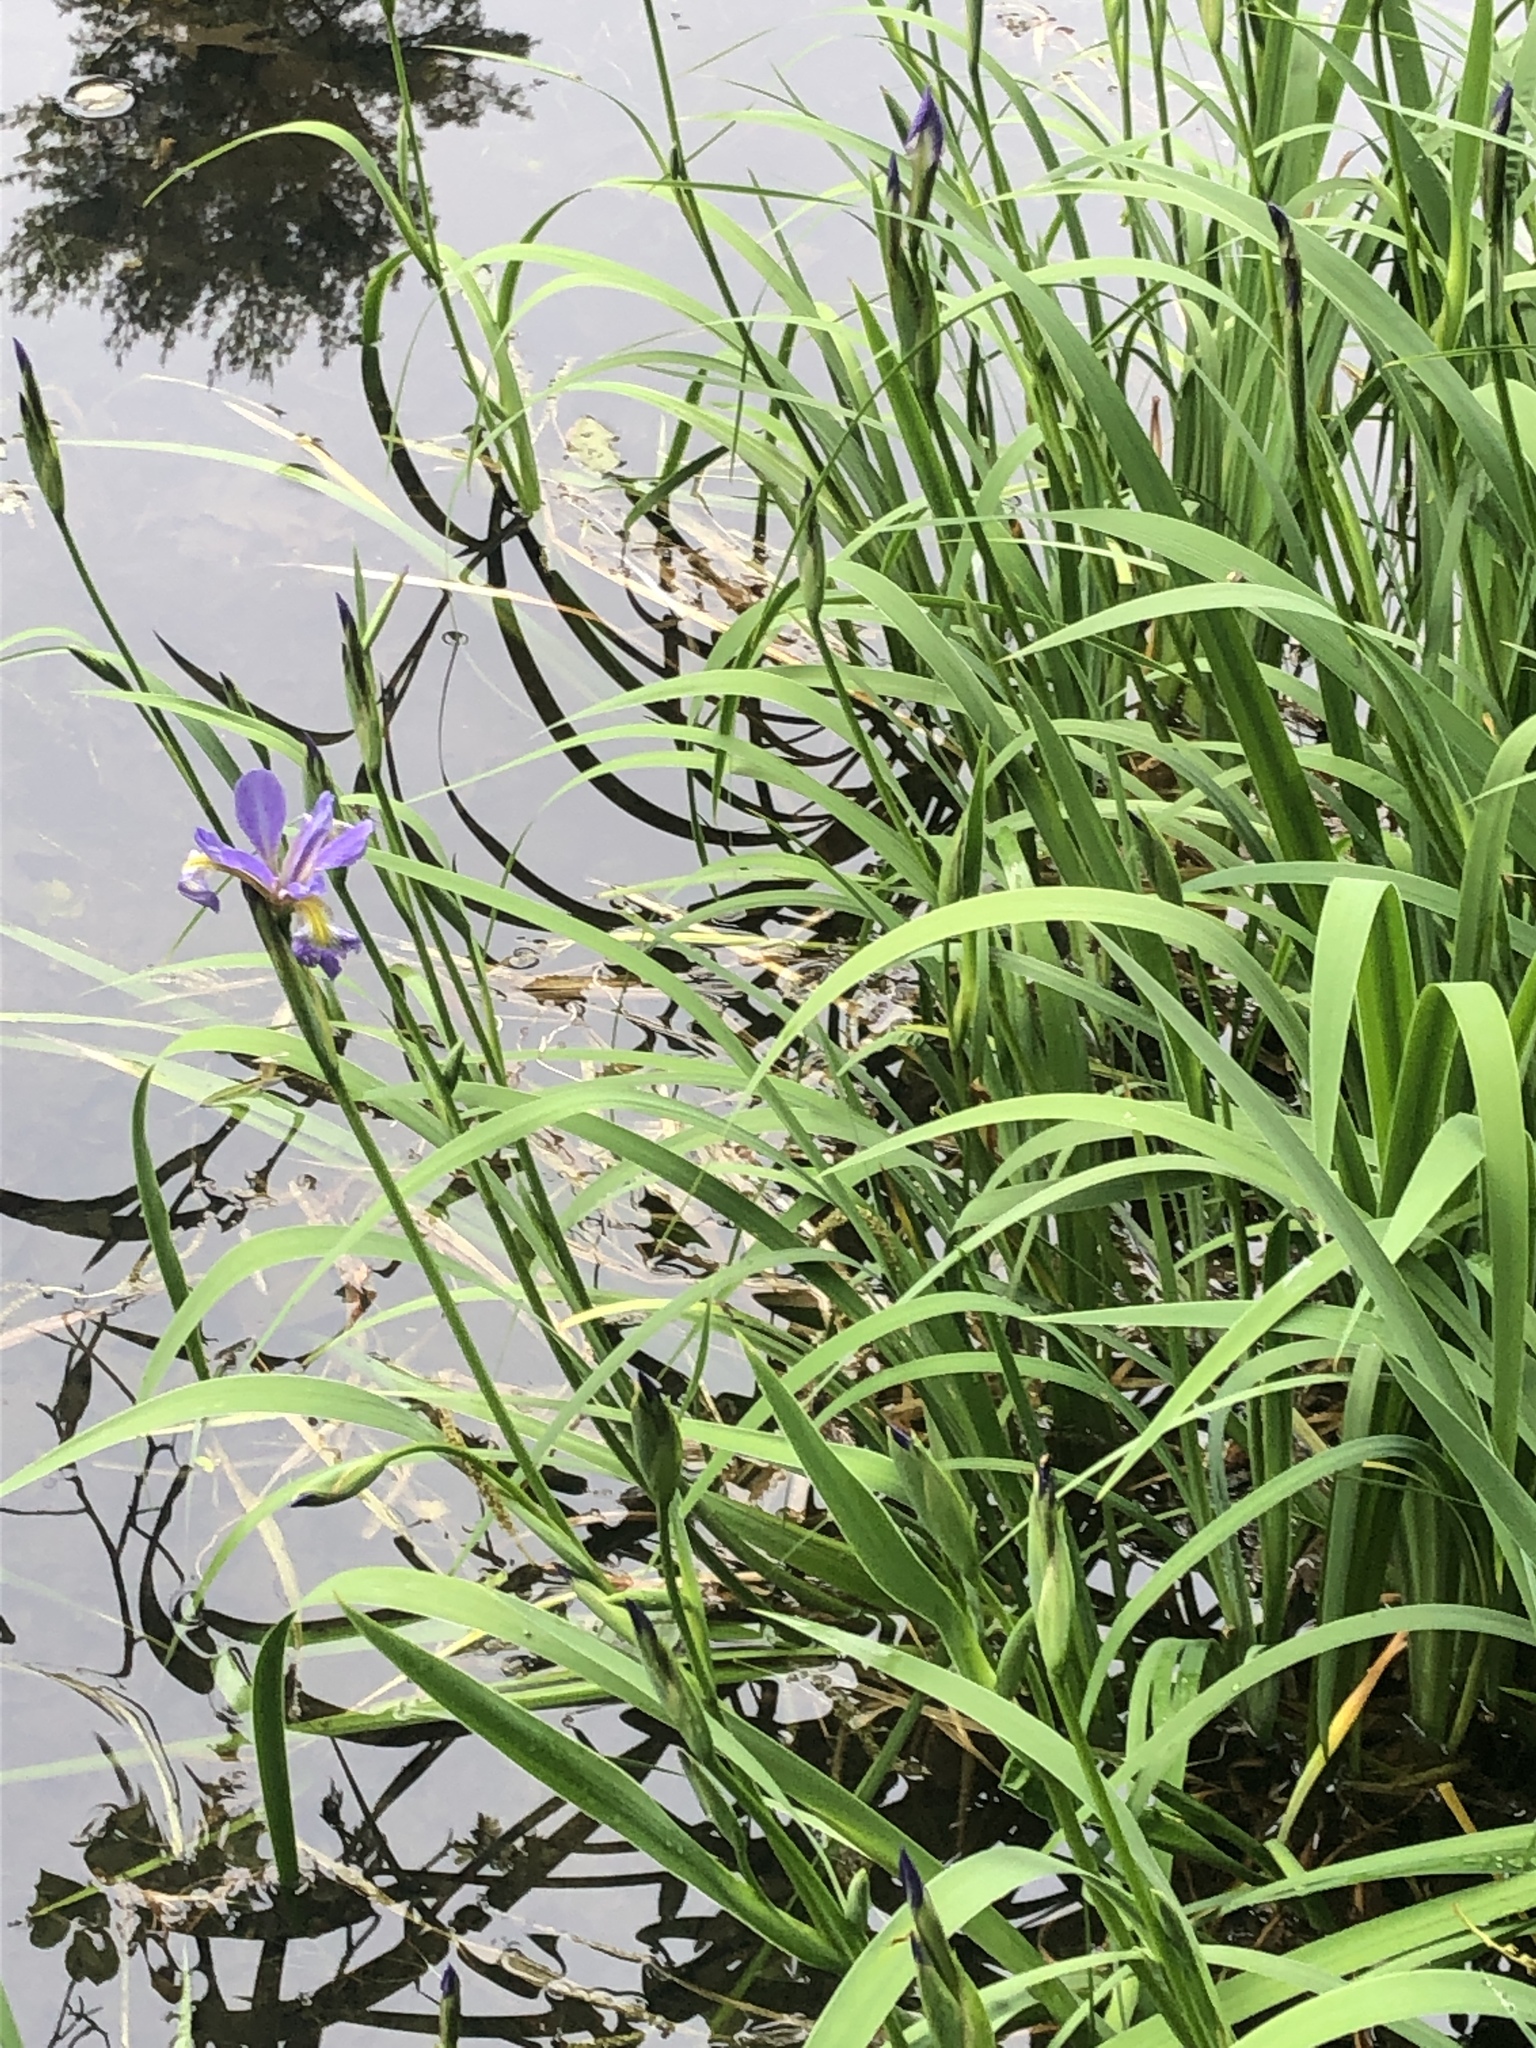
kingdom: Plantae
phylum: Tracheophyta
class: Liliopsida
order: Asparagales
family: Iridaceae
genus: Iris
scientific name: Iris virginica
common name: Southern blue flag
